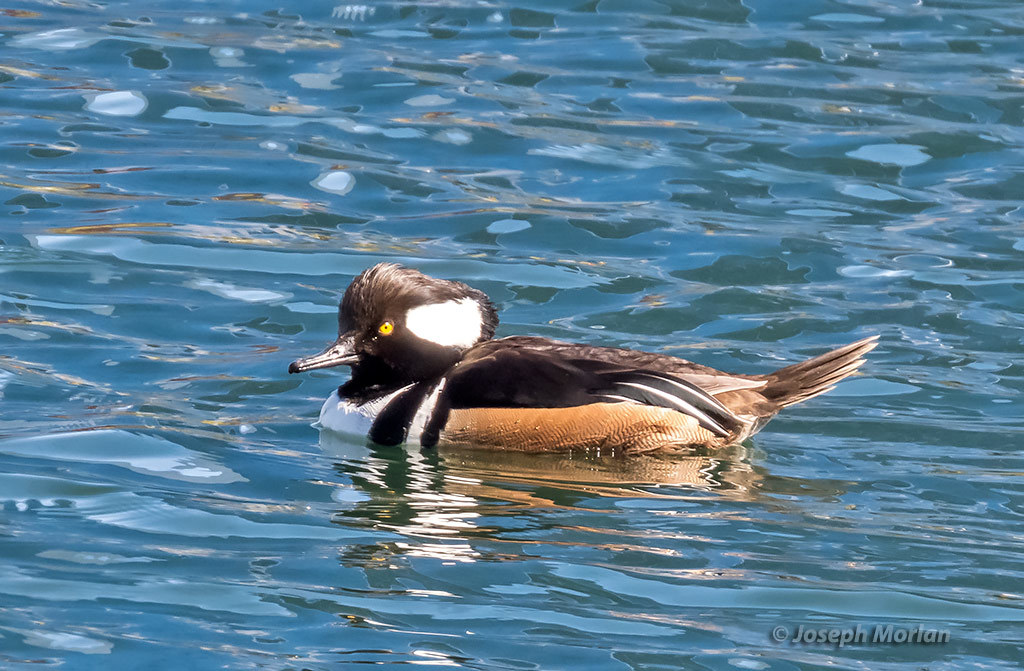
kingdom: Animalia
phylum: Chordata
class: Aves
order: Anseriformes
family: Anatidae
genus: Lophodytes
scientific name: Lophodytes cucullatus
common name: Hooded merganser
